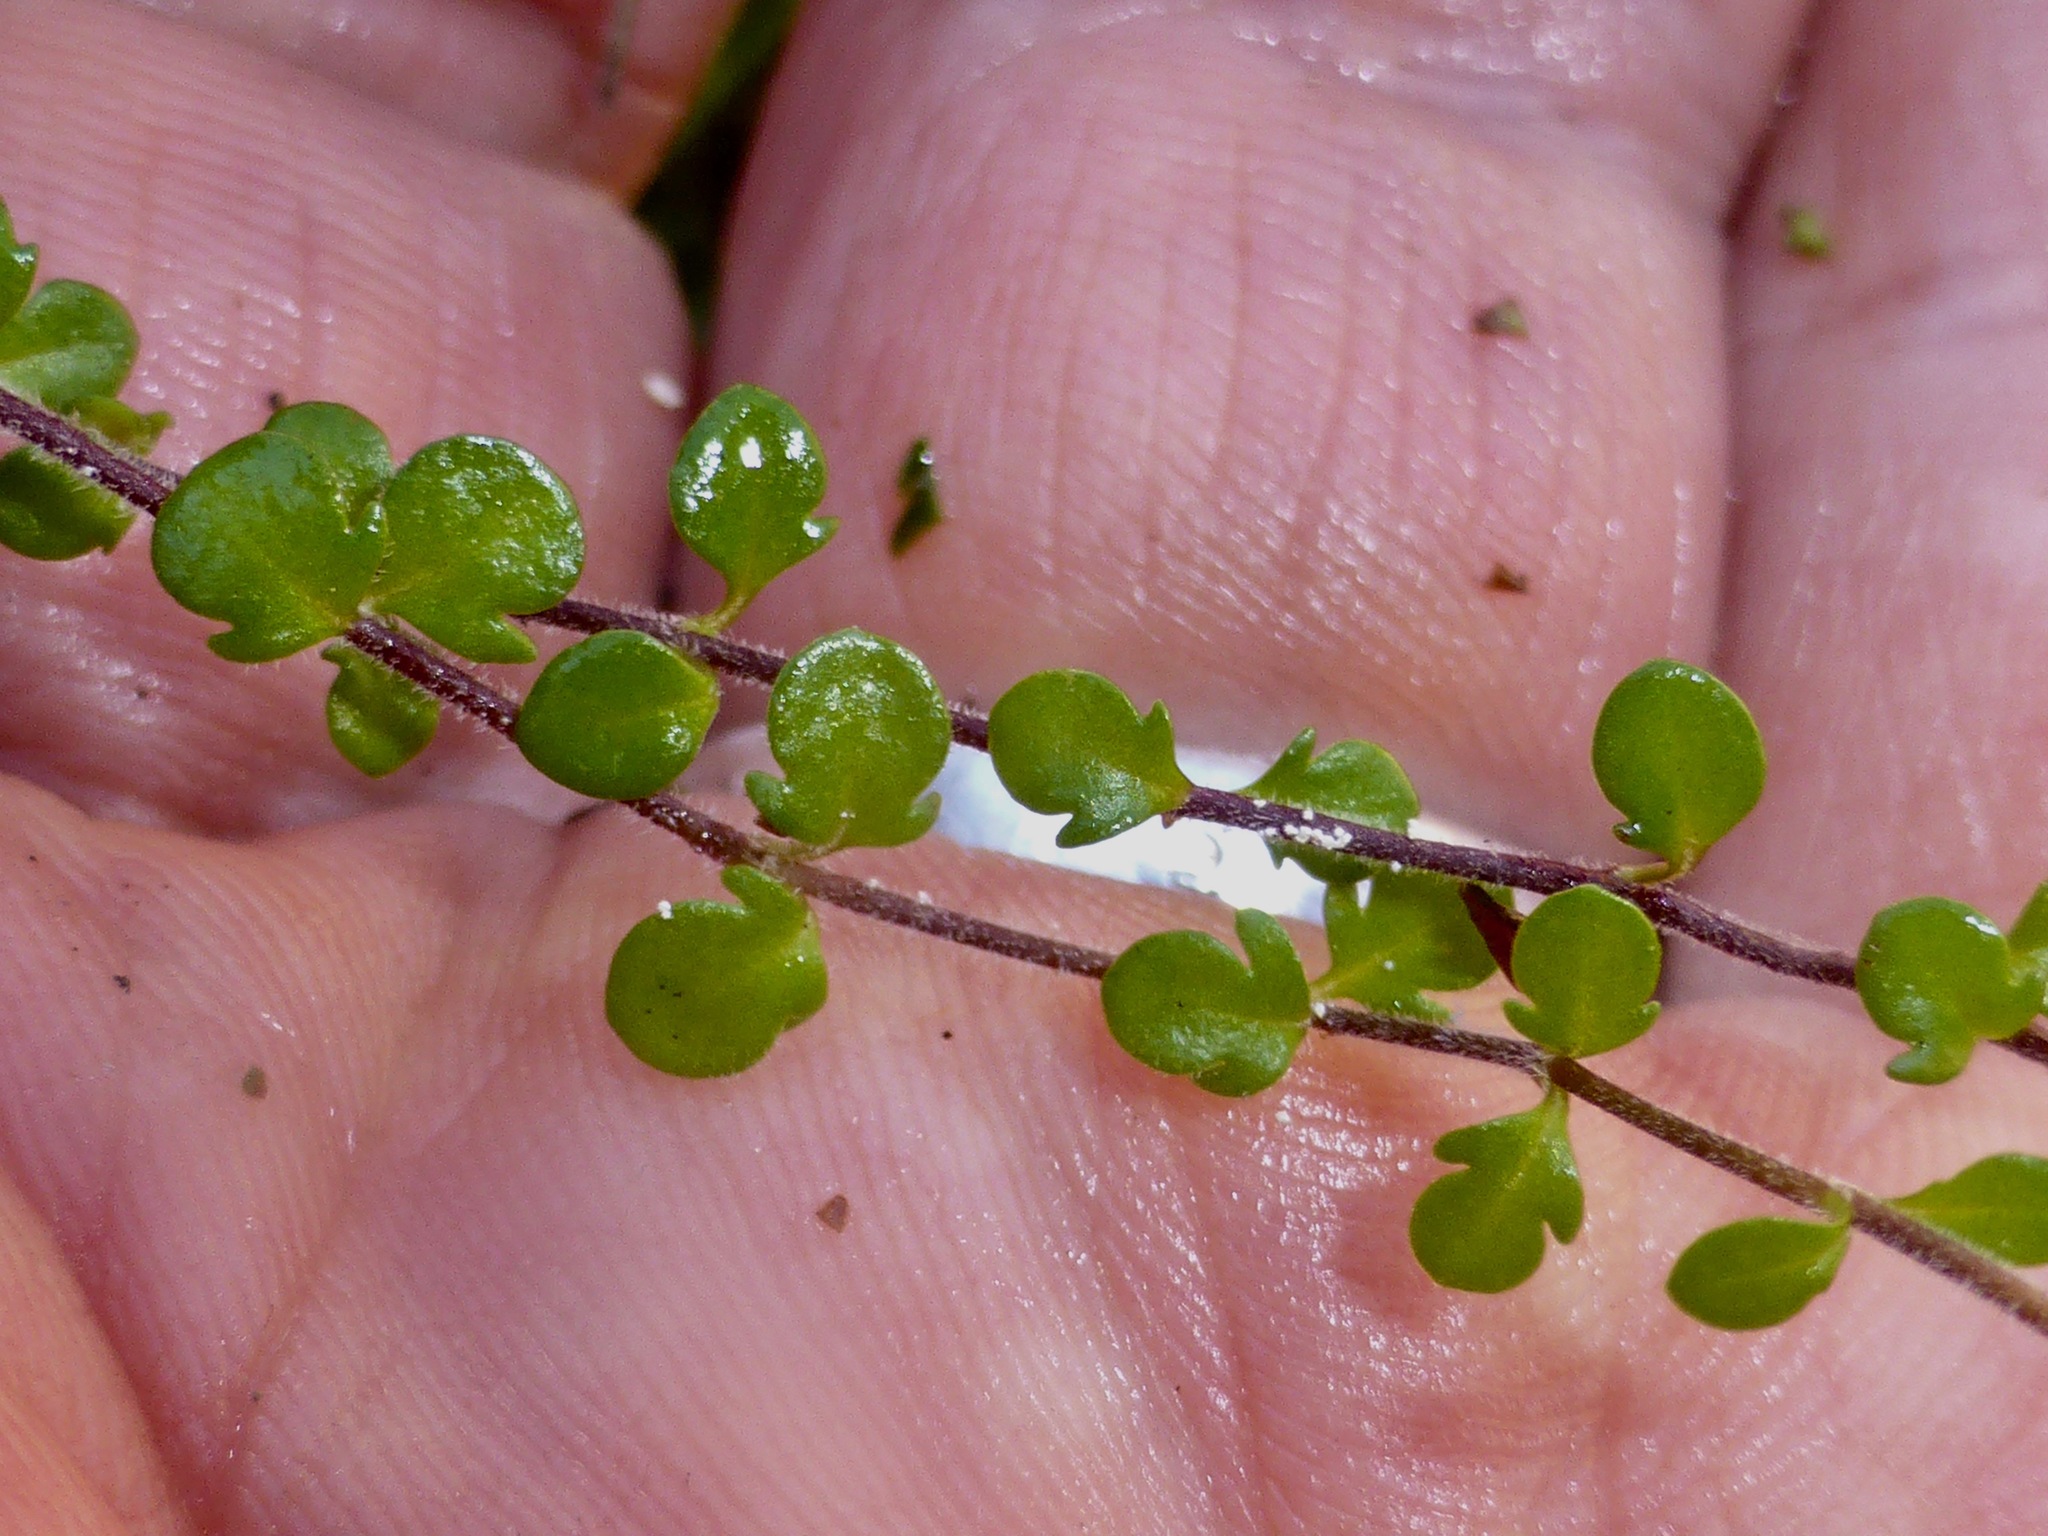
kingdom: Plantae
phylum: Tracheophyta
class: Magnoliopsida
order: Lamiales
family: Plantaginaceae
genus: Veronica
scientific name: Veronica decora
